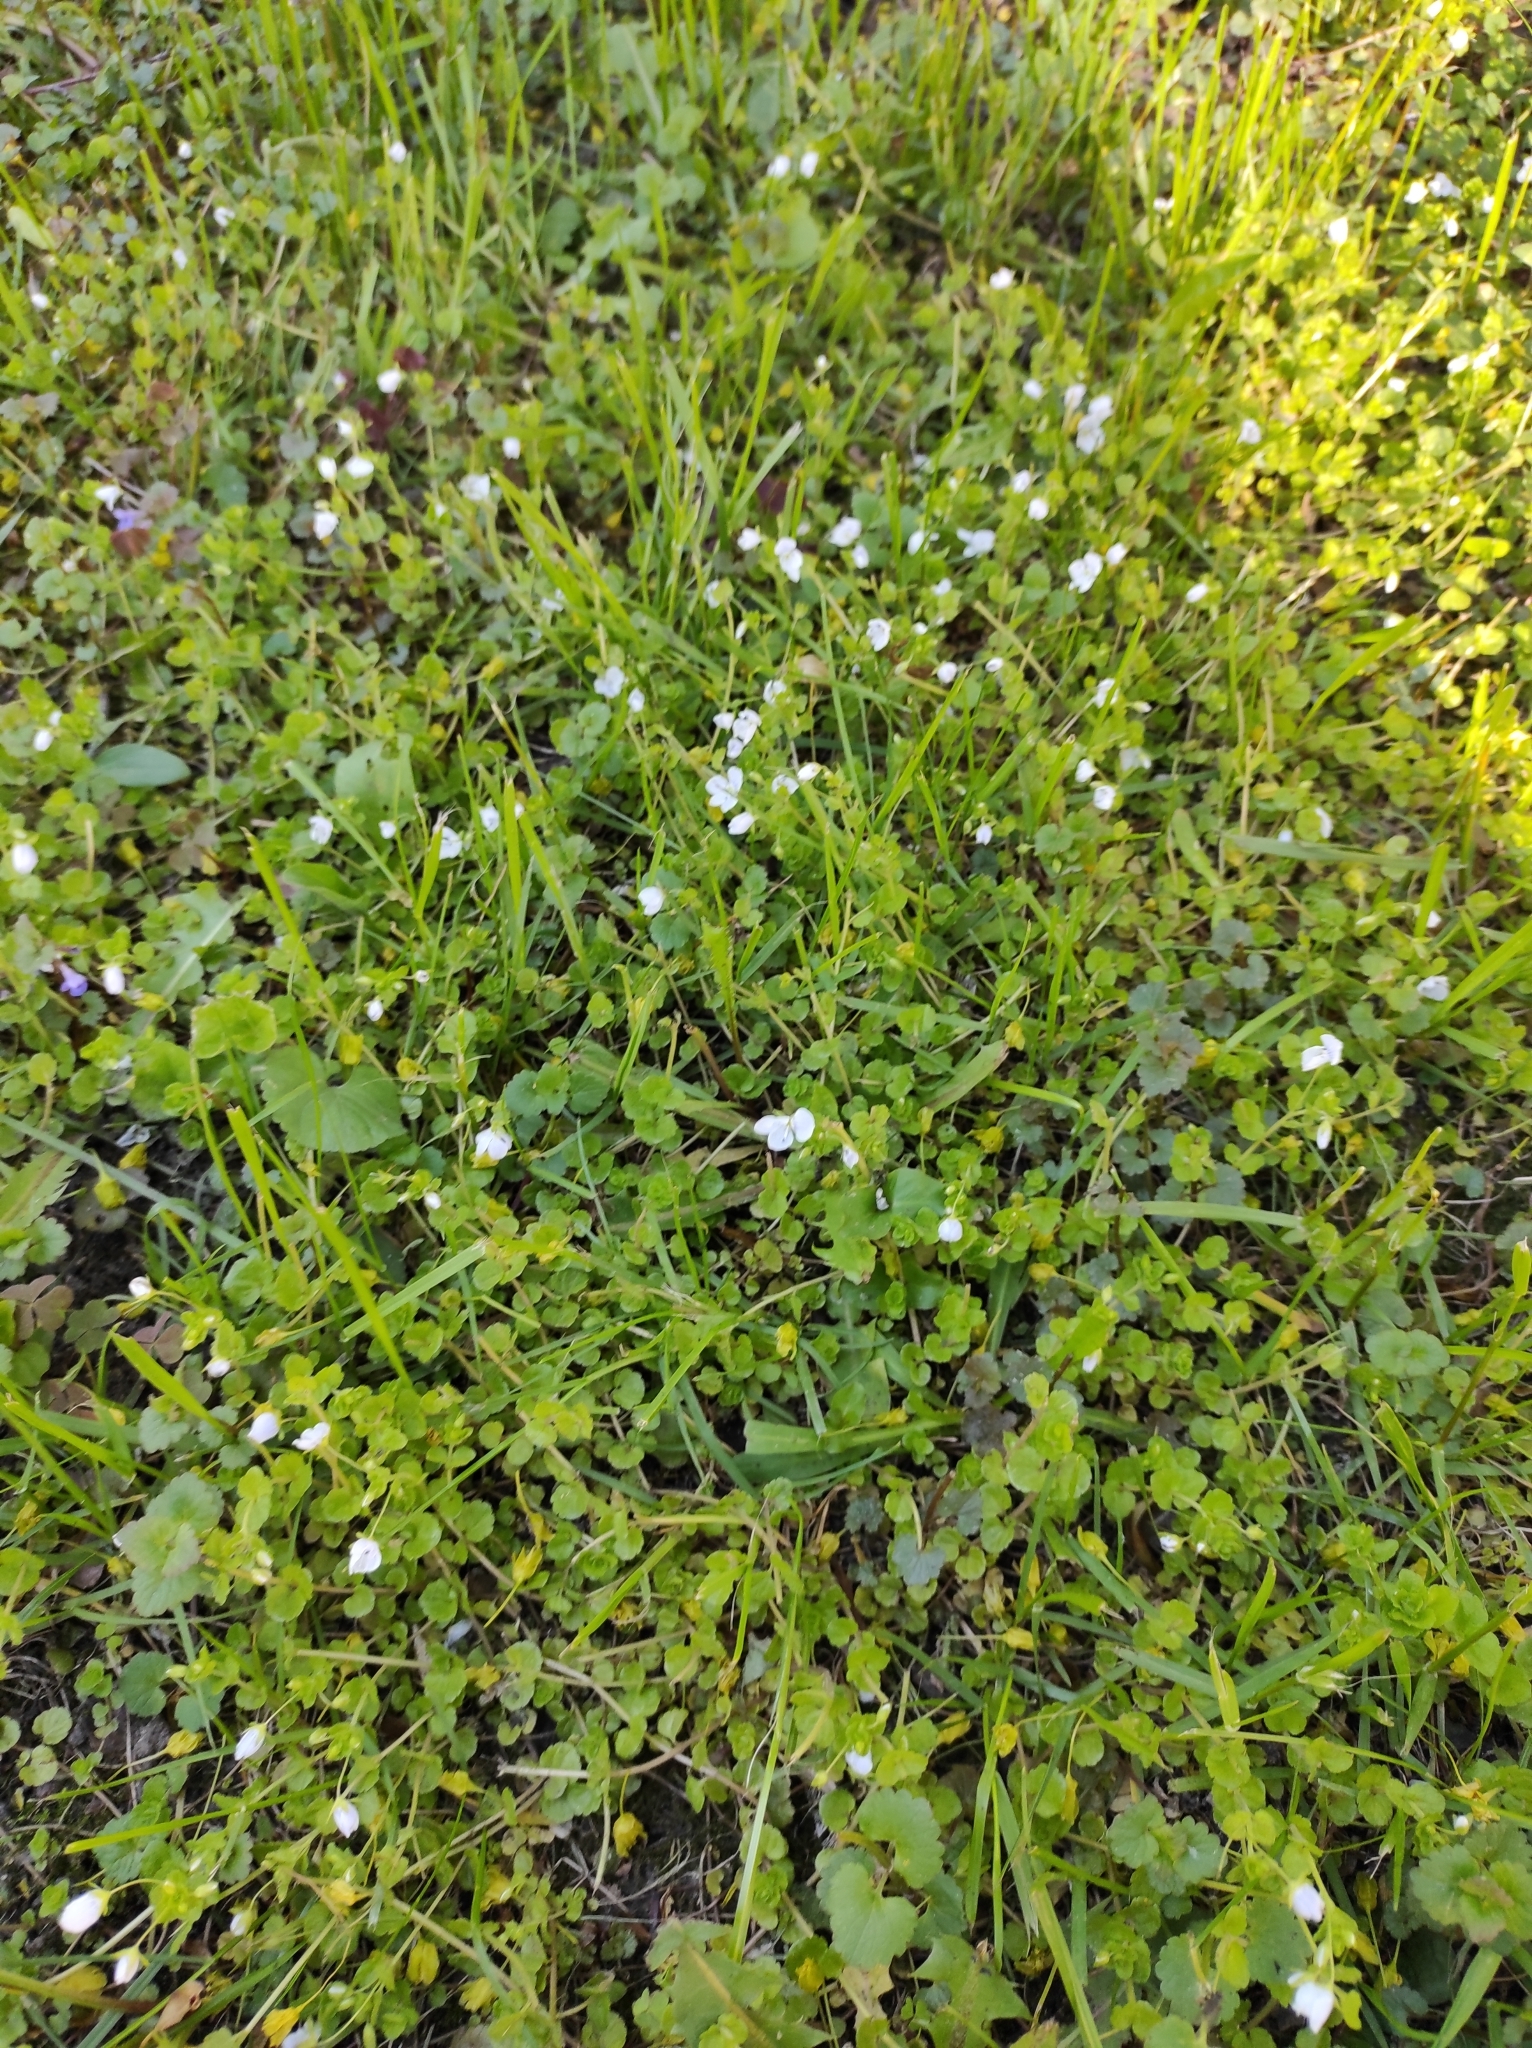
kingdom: Plantae
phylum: Tracheophyta
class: Magnoliopsida
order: Lamiales
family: Plantaginaceae
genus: Veronica
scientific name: Veronica filiformis
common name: Slender speedwell
